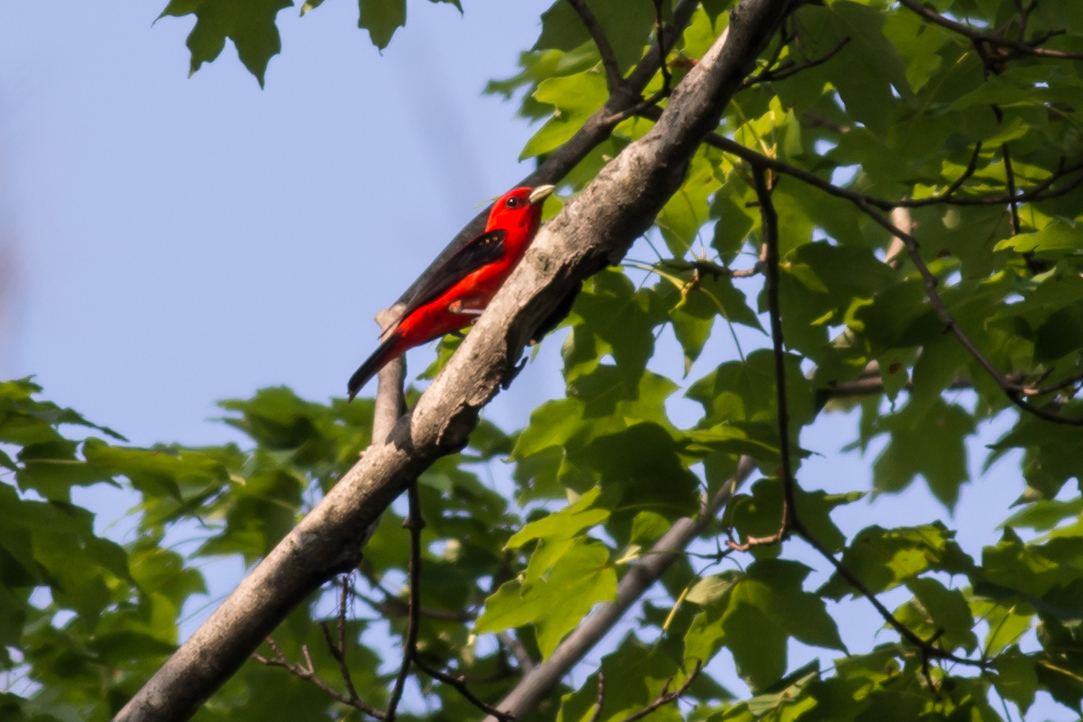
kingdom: Animalia
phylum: Chordata
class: Aves
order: Passeriformes
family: Cardinalidae
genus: Piranga
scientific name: Piranga olivacea
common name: Scarlet tanager
